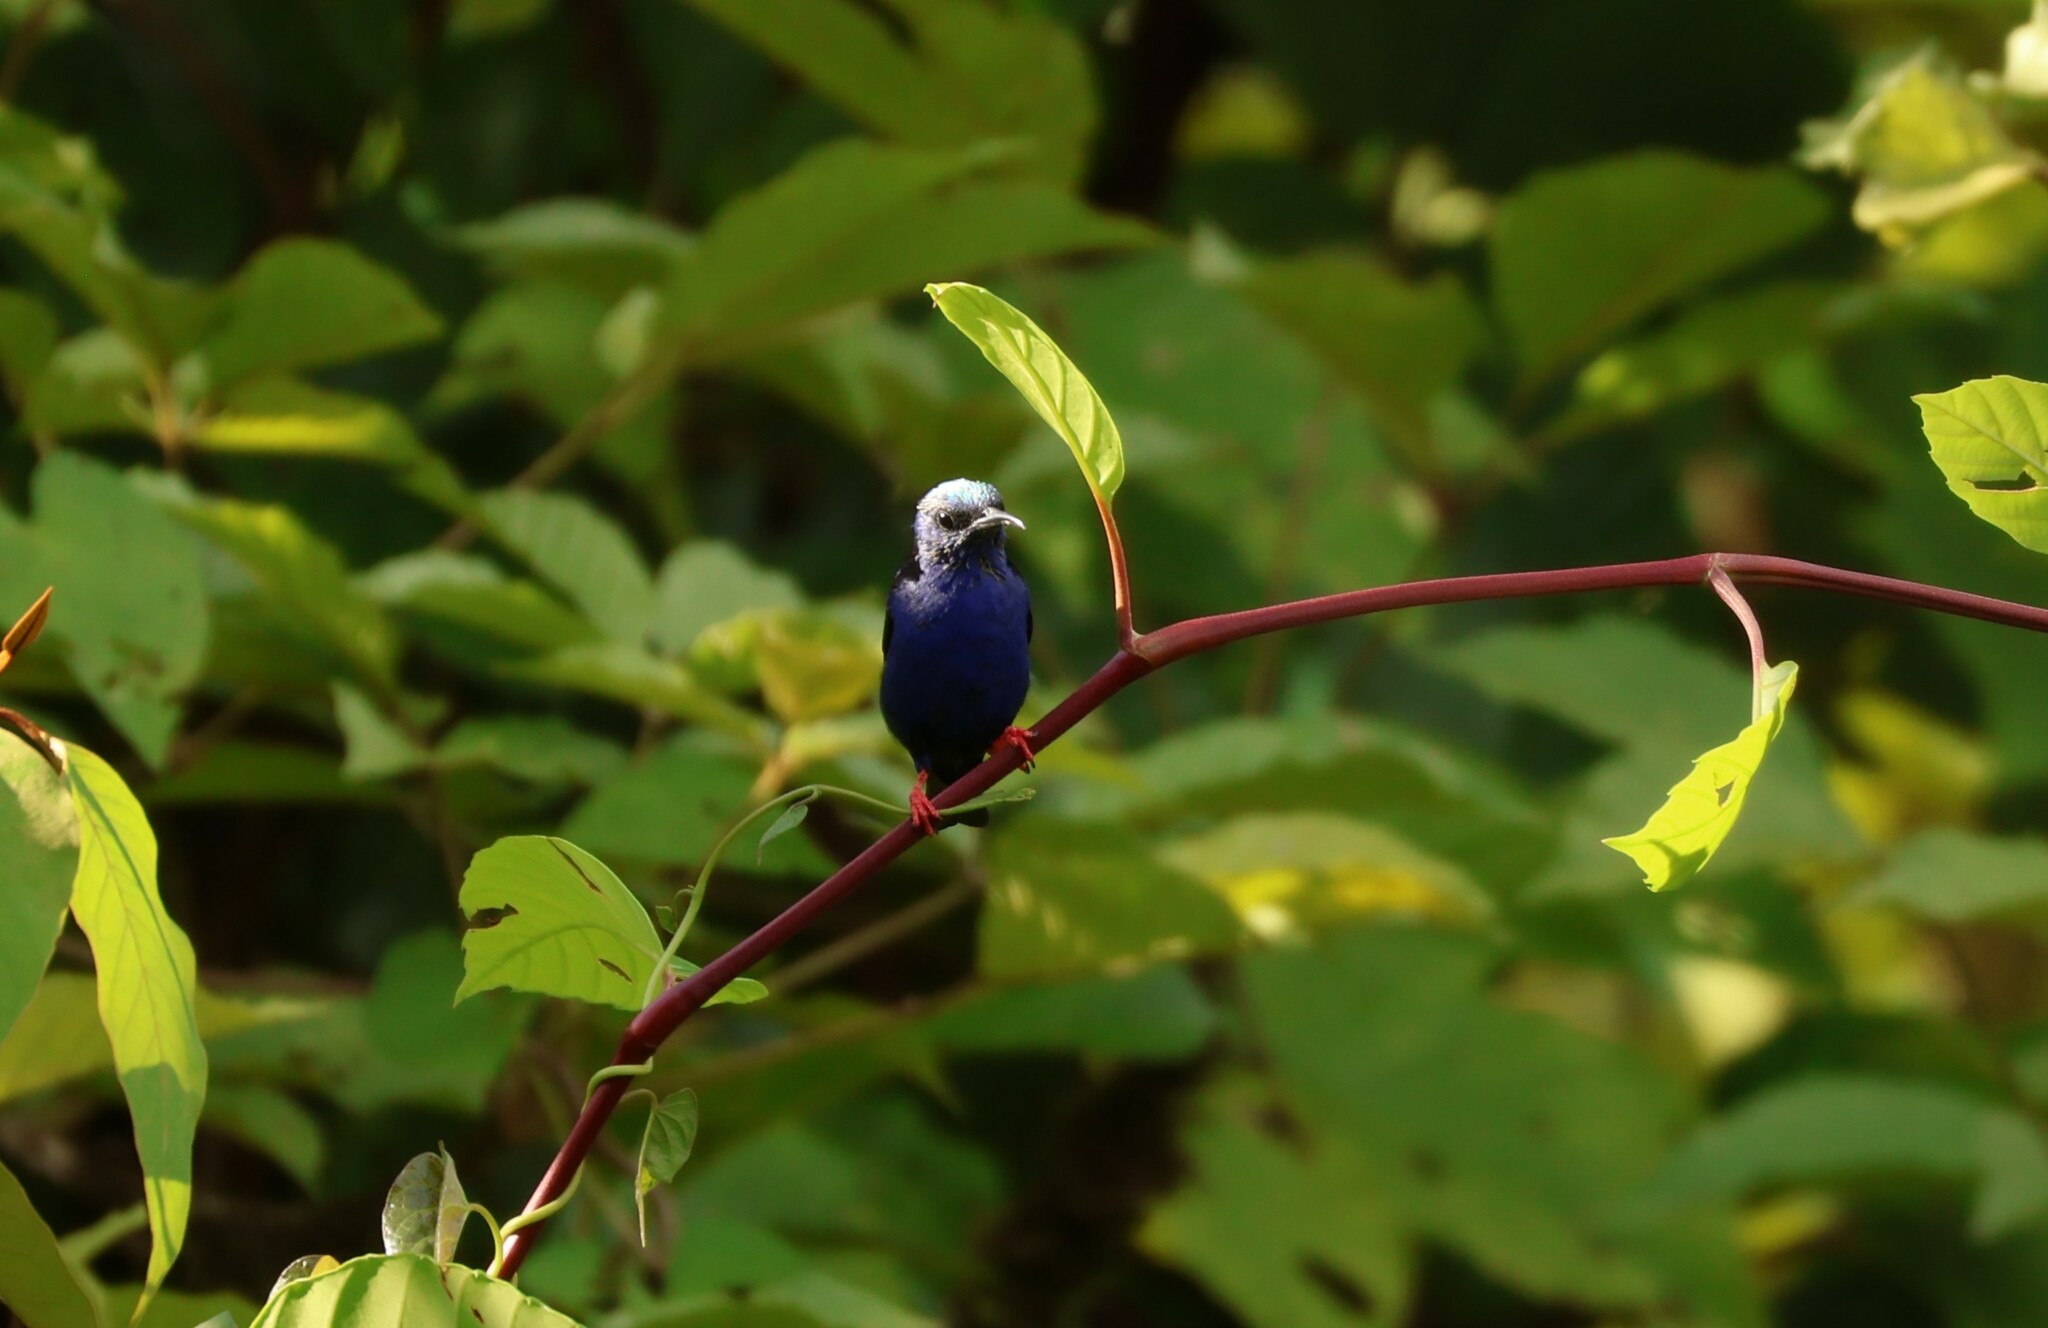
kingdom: Animalia
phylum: Chordata
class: Aves
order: Passeriformes
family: Thraupidae
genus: Cyanerpes
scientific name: Cyanerpes cyaneus
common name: Red-legged honeycreeper
